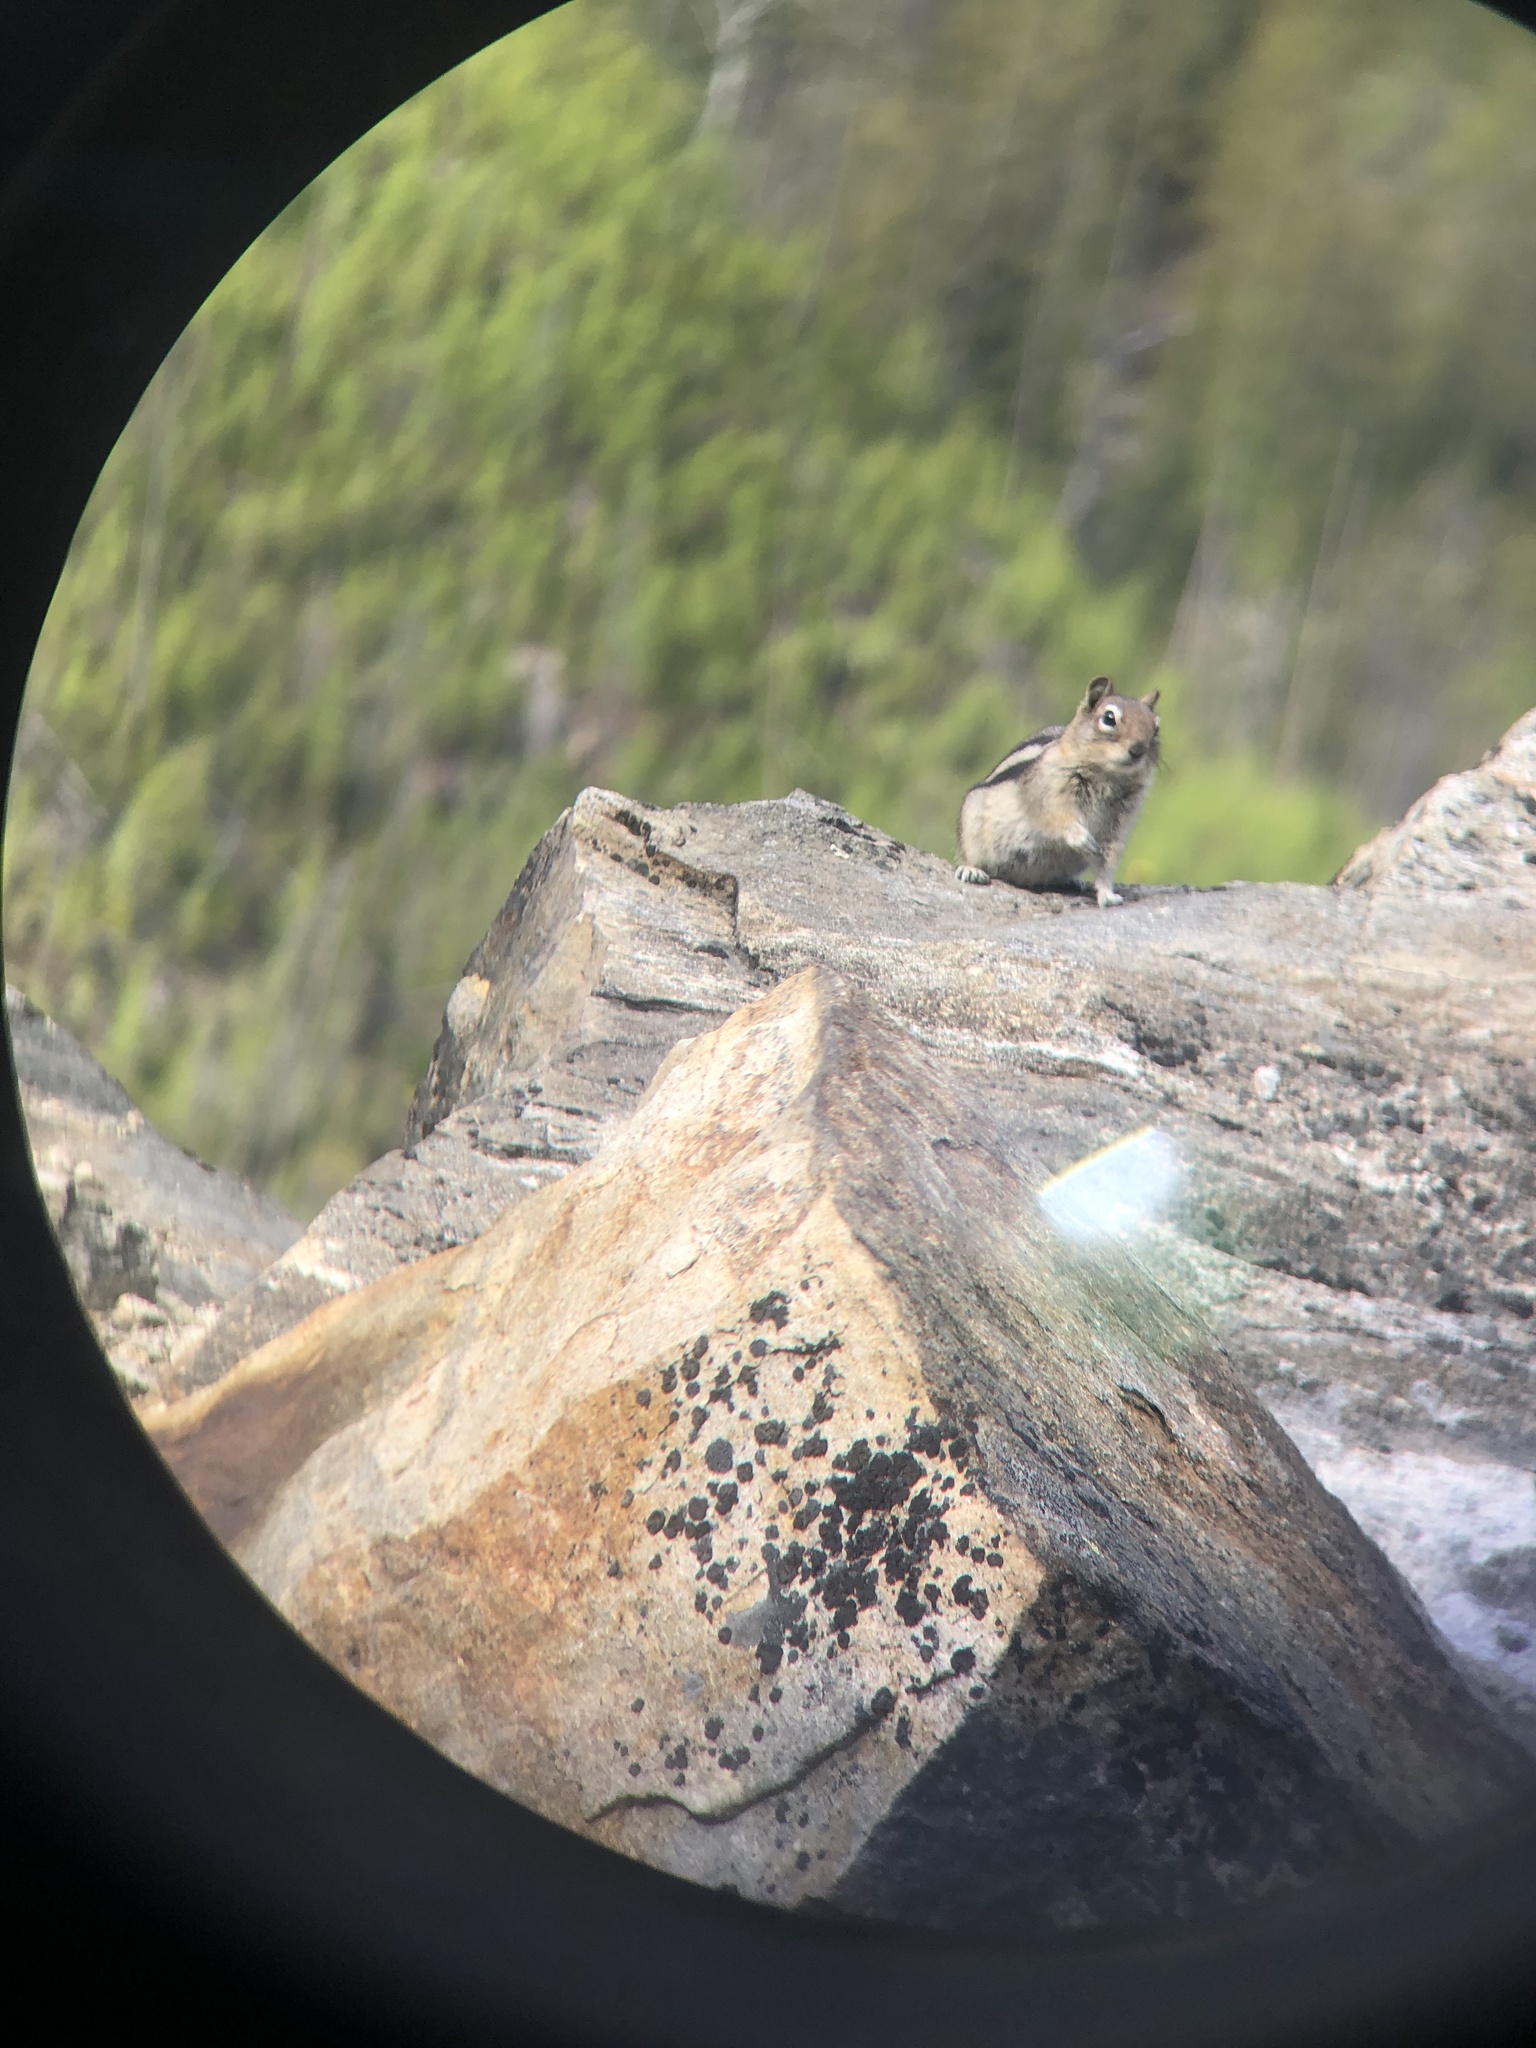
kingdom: Animalia
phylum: Chordata
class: Mammalia
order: Rodentia
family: Sciuridae
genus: Callospermophilus
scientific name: Callospermophilus lateralis
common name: Golden-mantled ground squirrel
